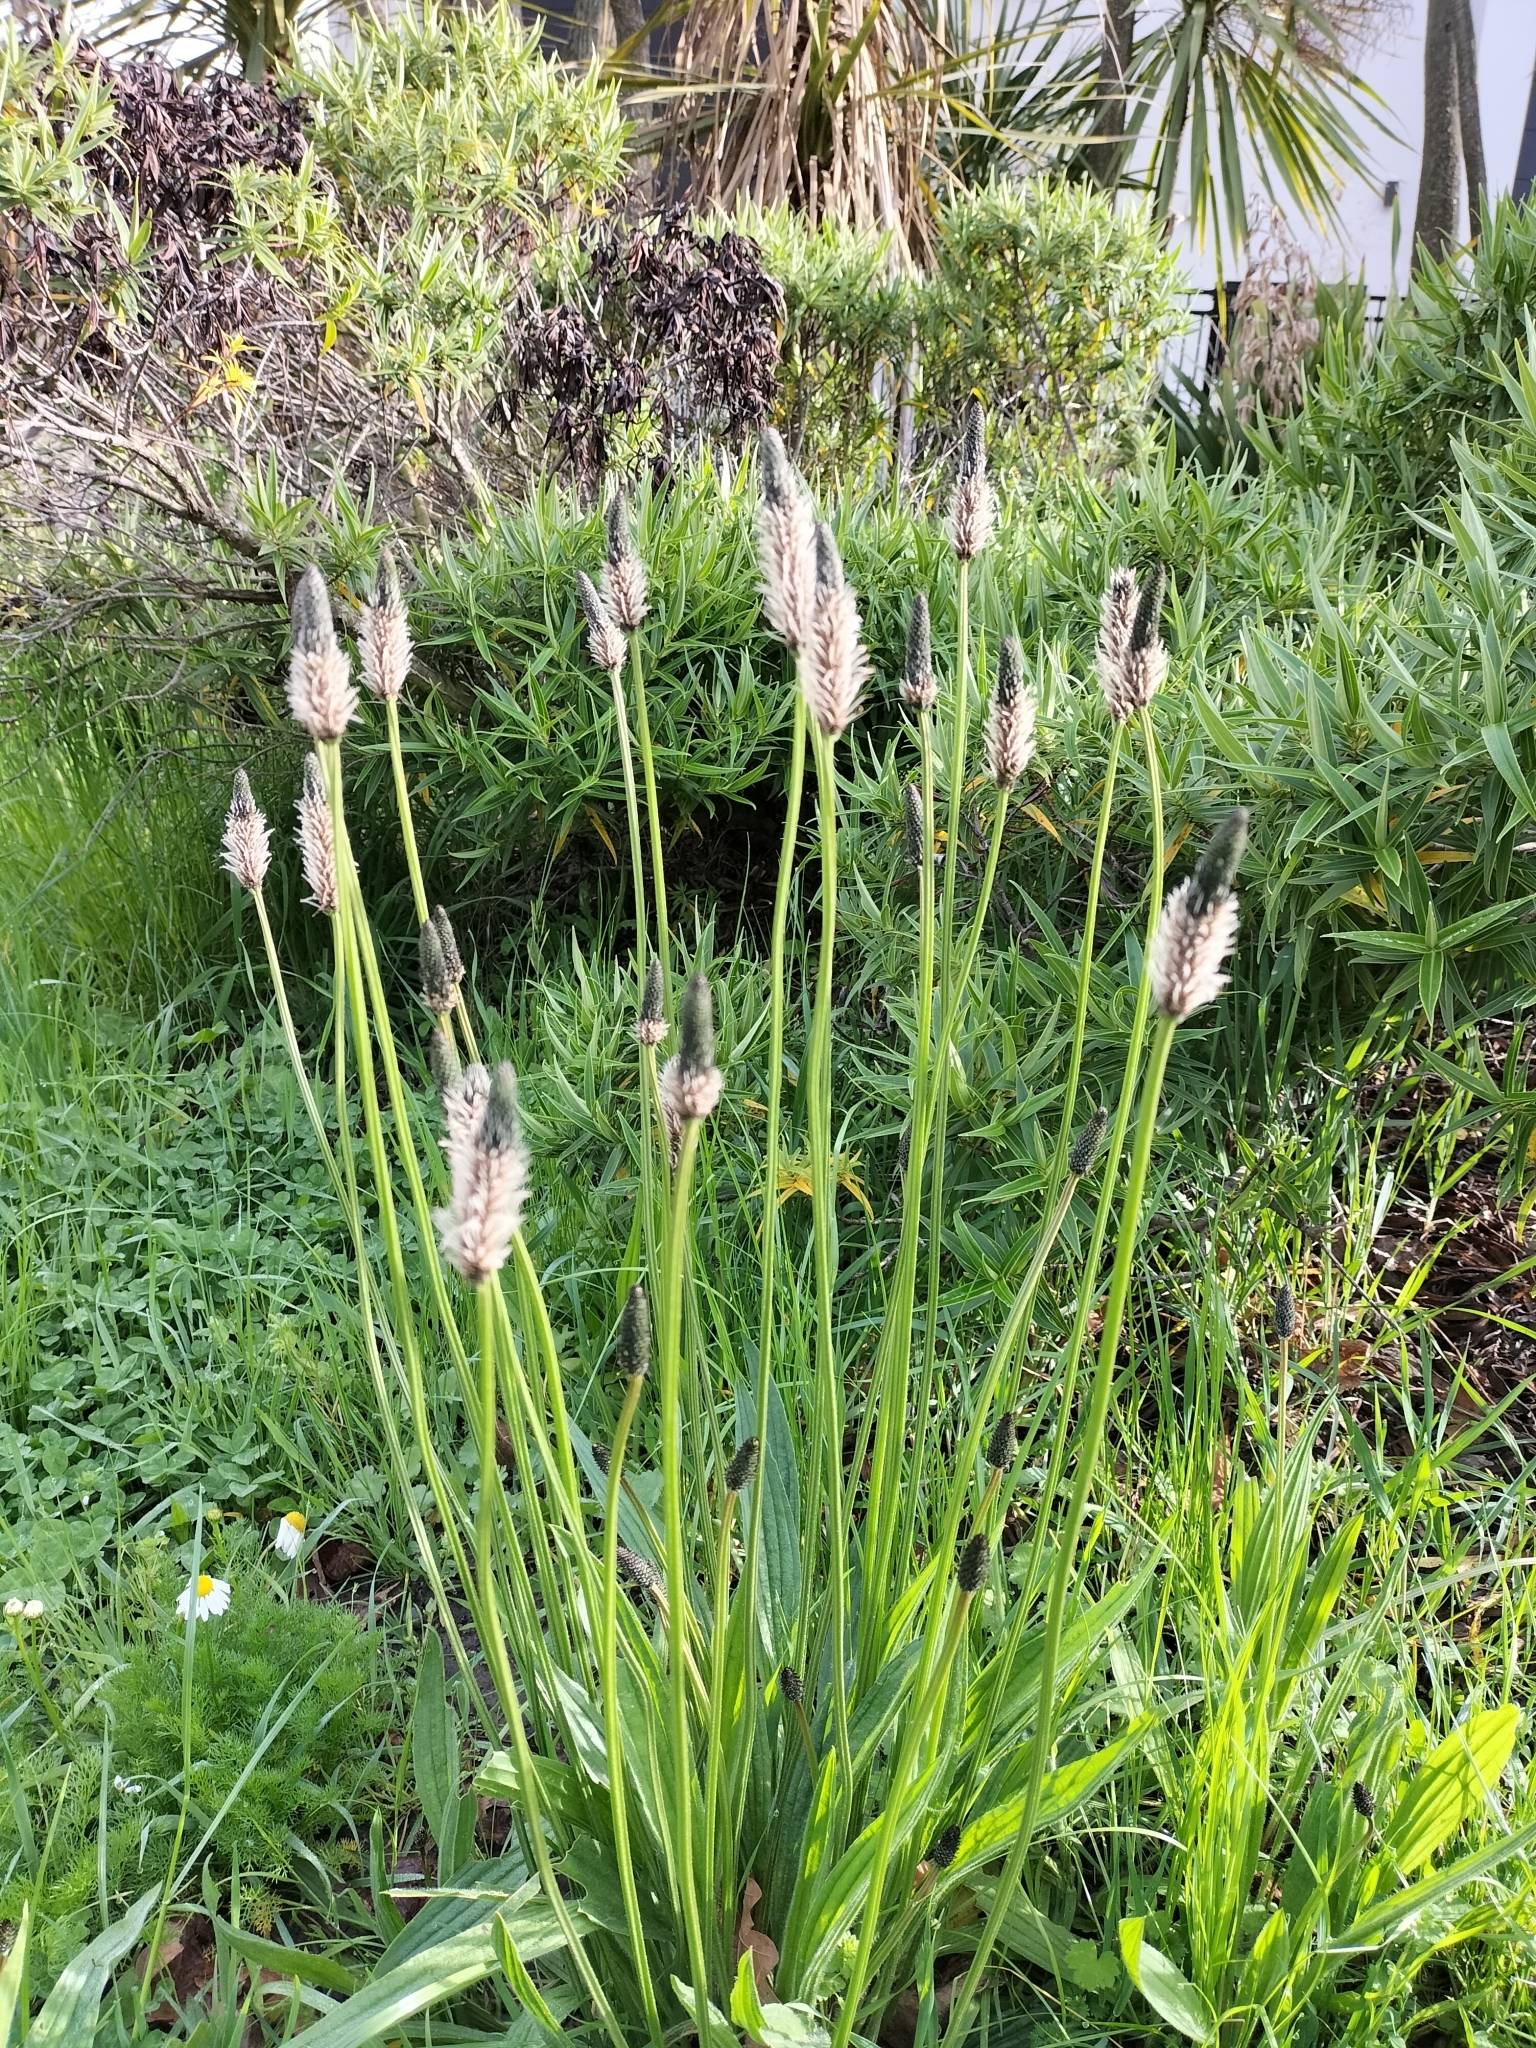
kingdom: Plantae
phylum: Tracheophyta
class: Magnoliopsida
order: Lamiales
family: Plantaginaceae
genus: Plantago
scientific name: Plantago lanceolata
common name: Ribwort plantain
